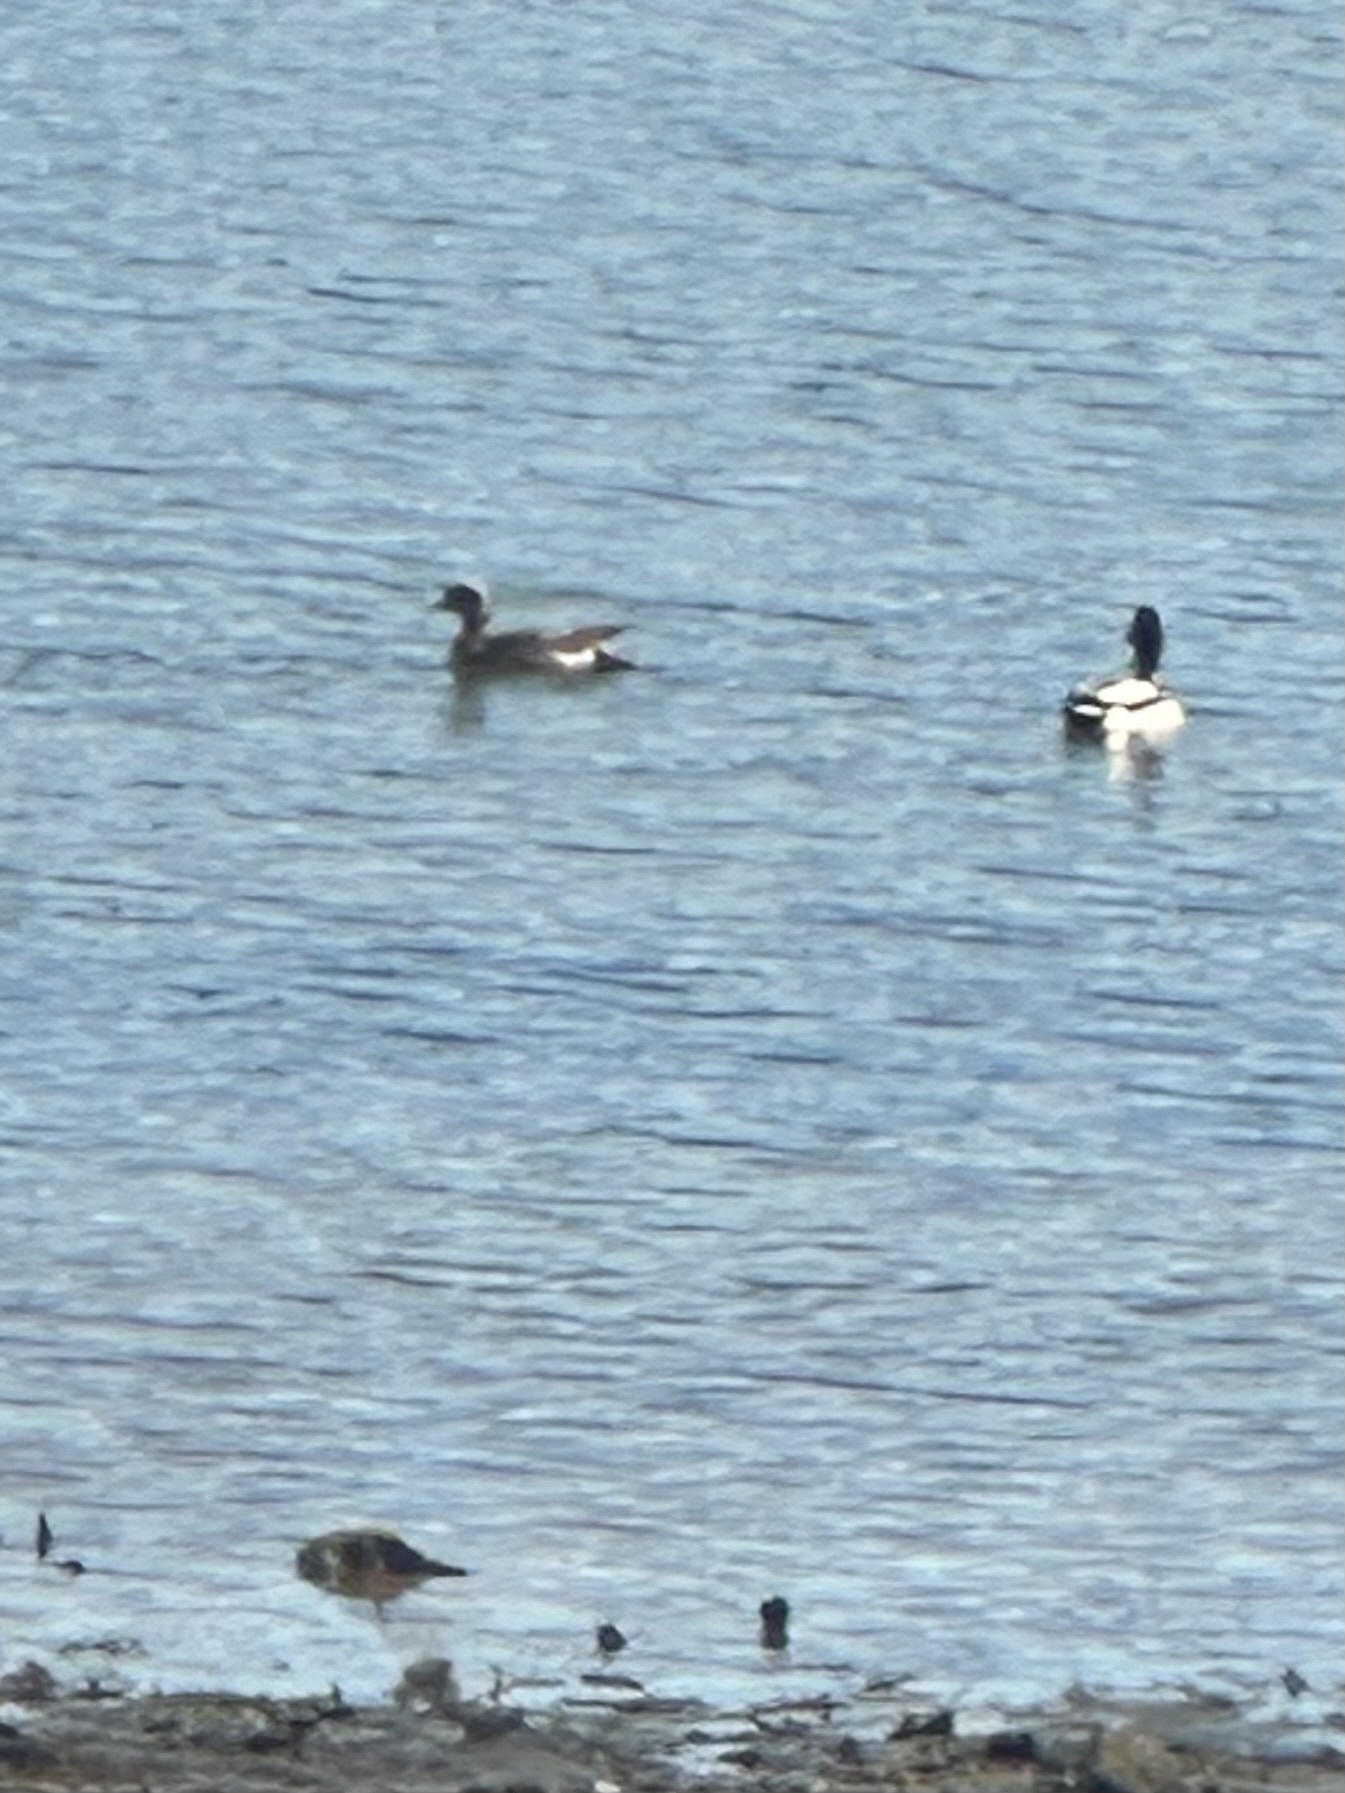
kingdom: Animalia
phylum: Chordata
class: Aves
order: Anseriformes
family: Anatidae
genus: Anas
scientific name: Anas platyrhynchos
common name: Mallard
